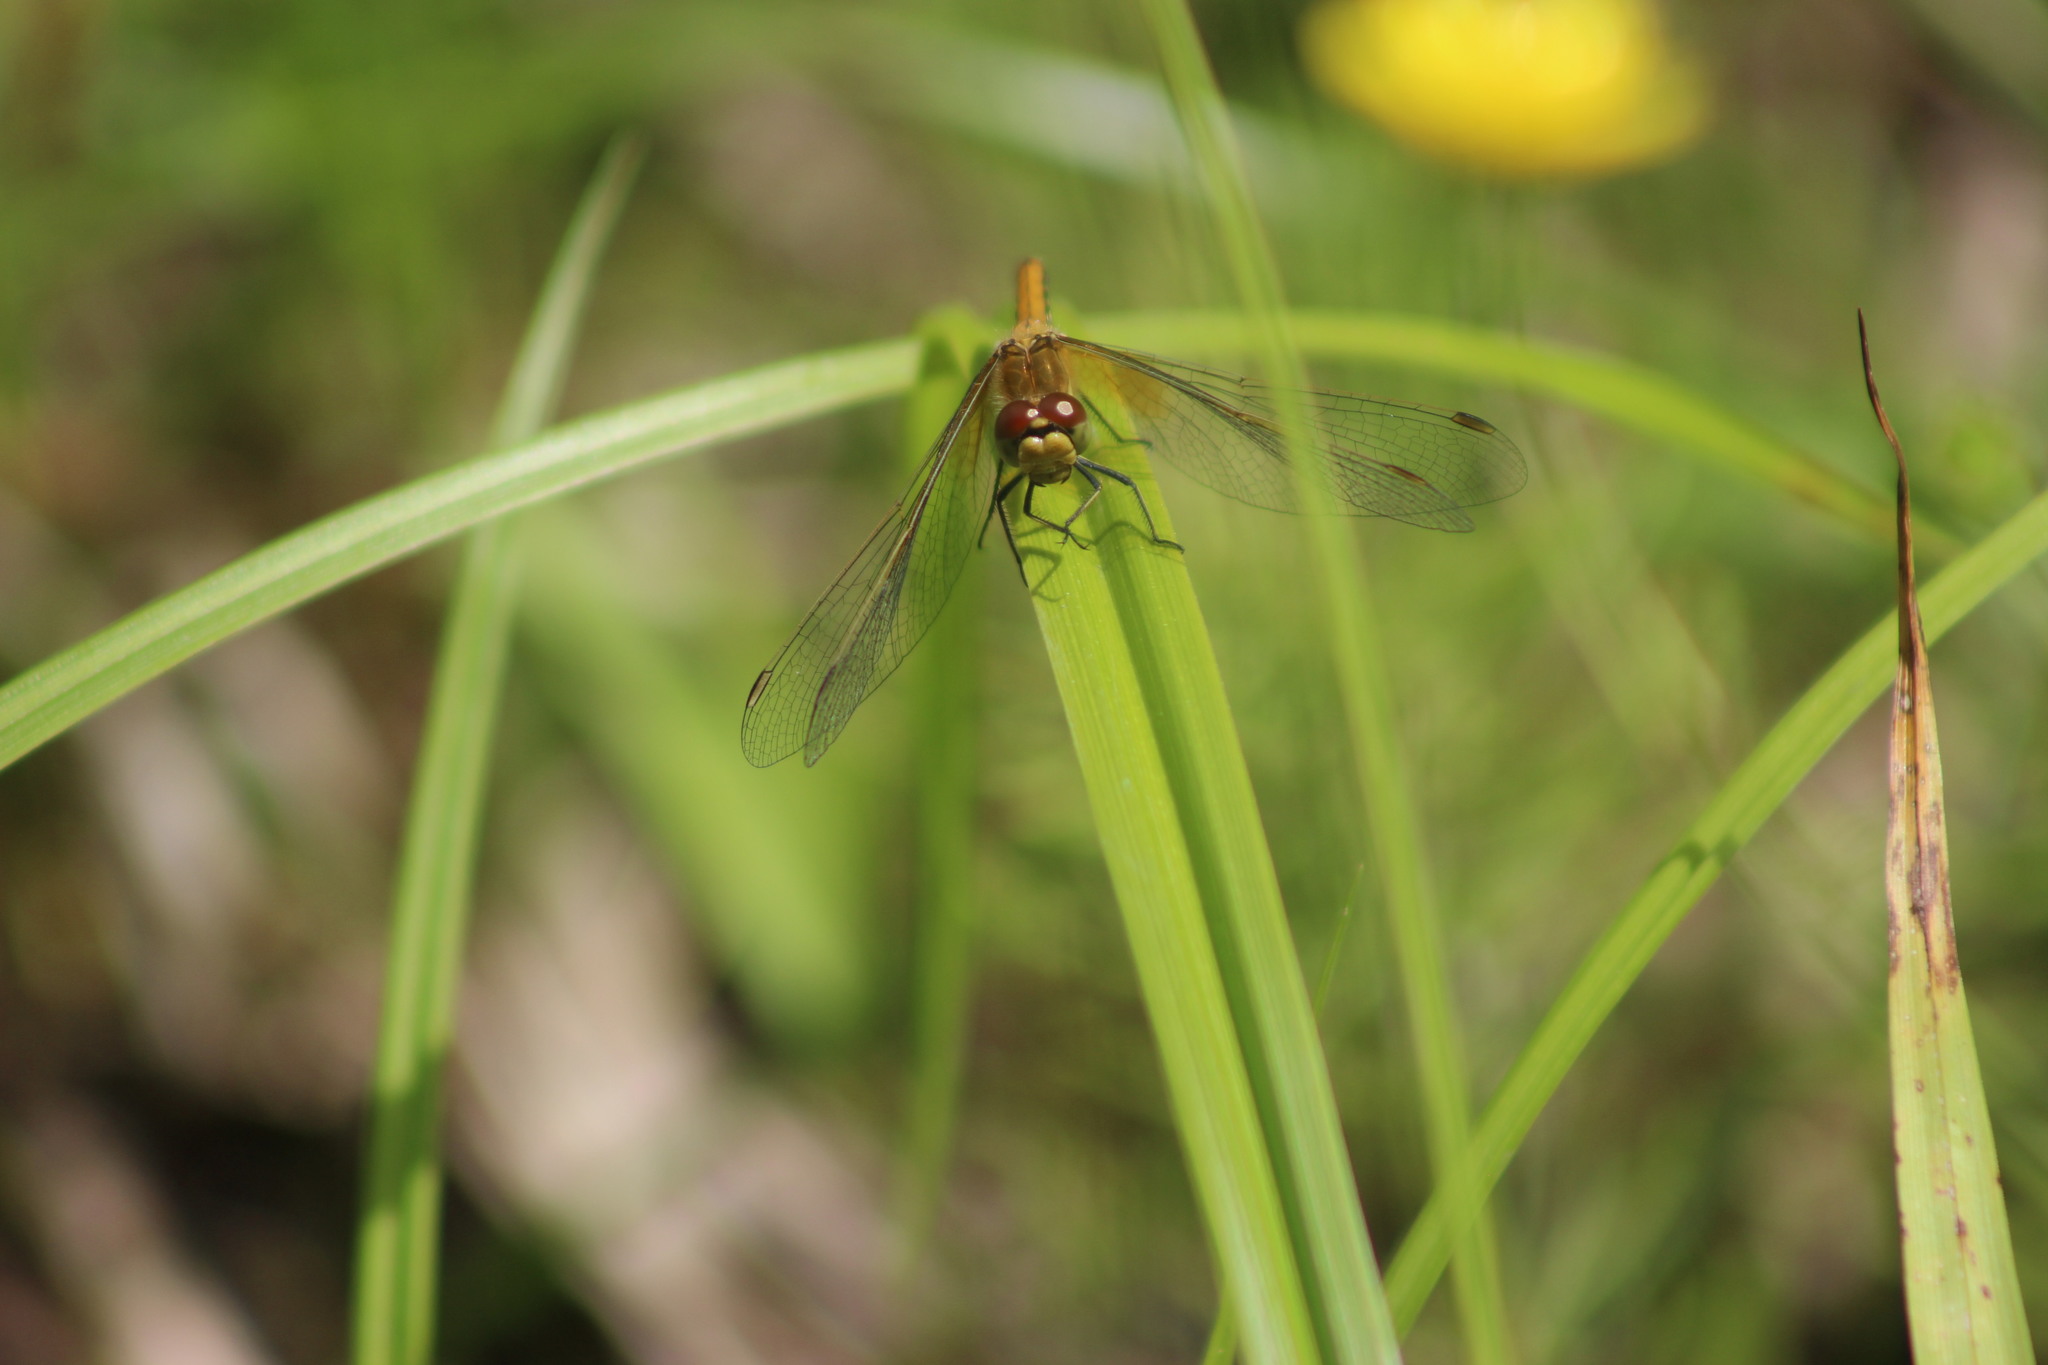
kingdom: Animalia
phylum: Arthropoda
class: Insecta
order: Odonata
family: Libellulidae
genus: Sympetrum
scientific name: Sympetrum flaveolum
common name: Yellow-winged darter
